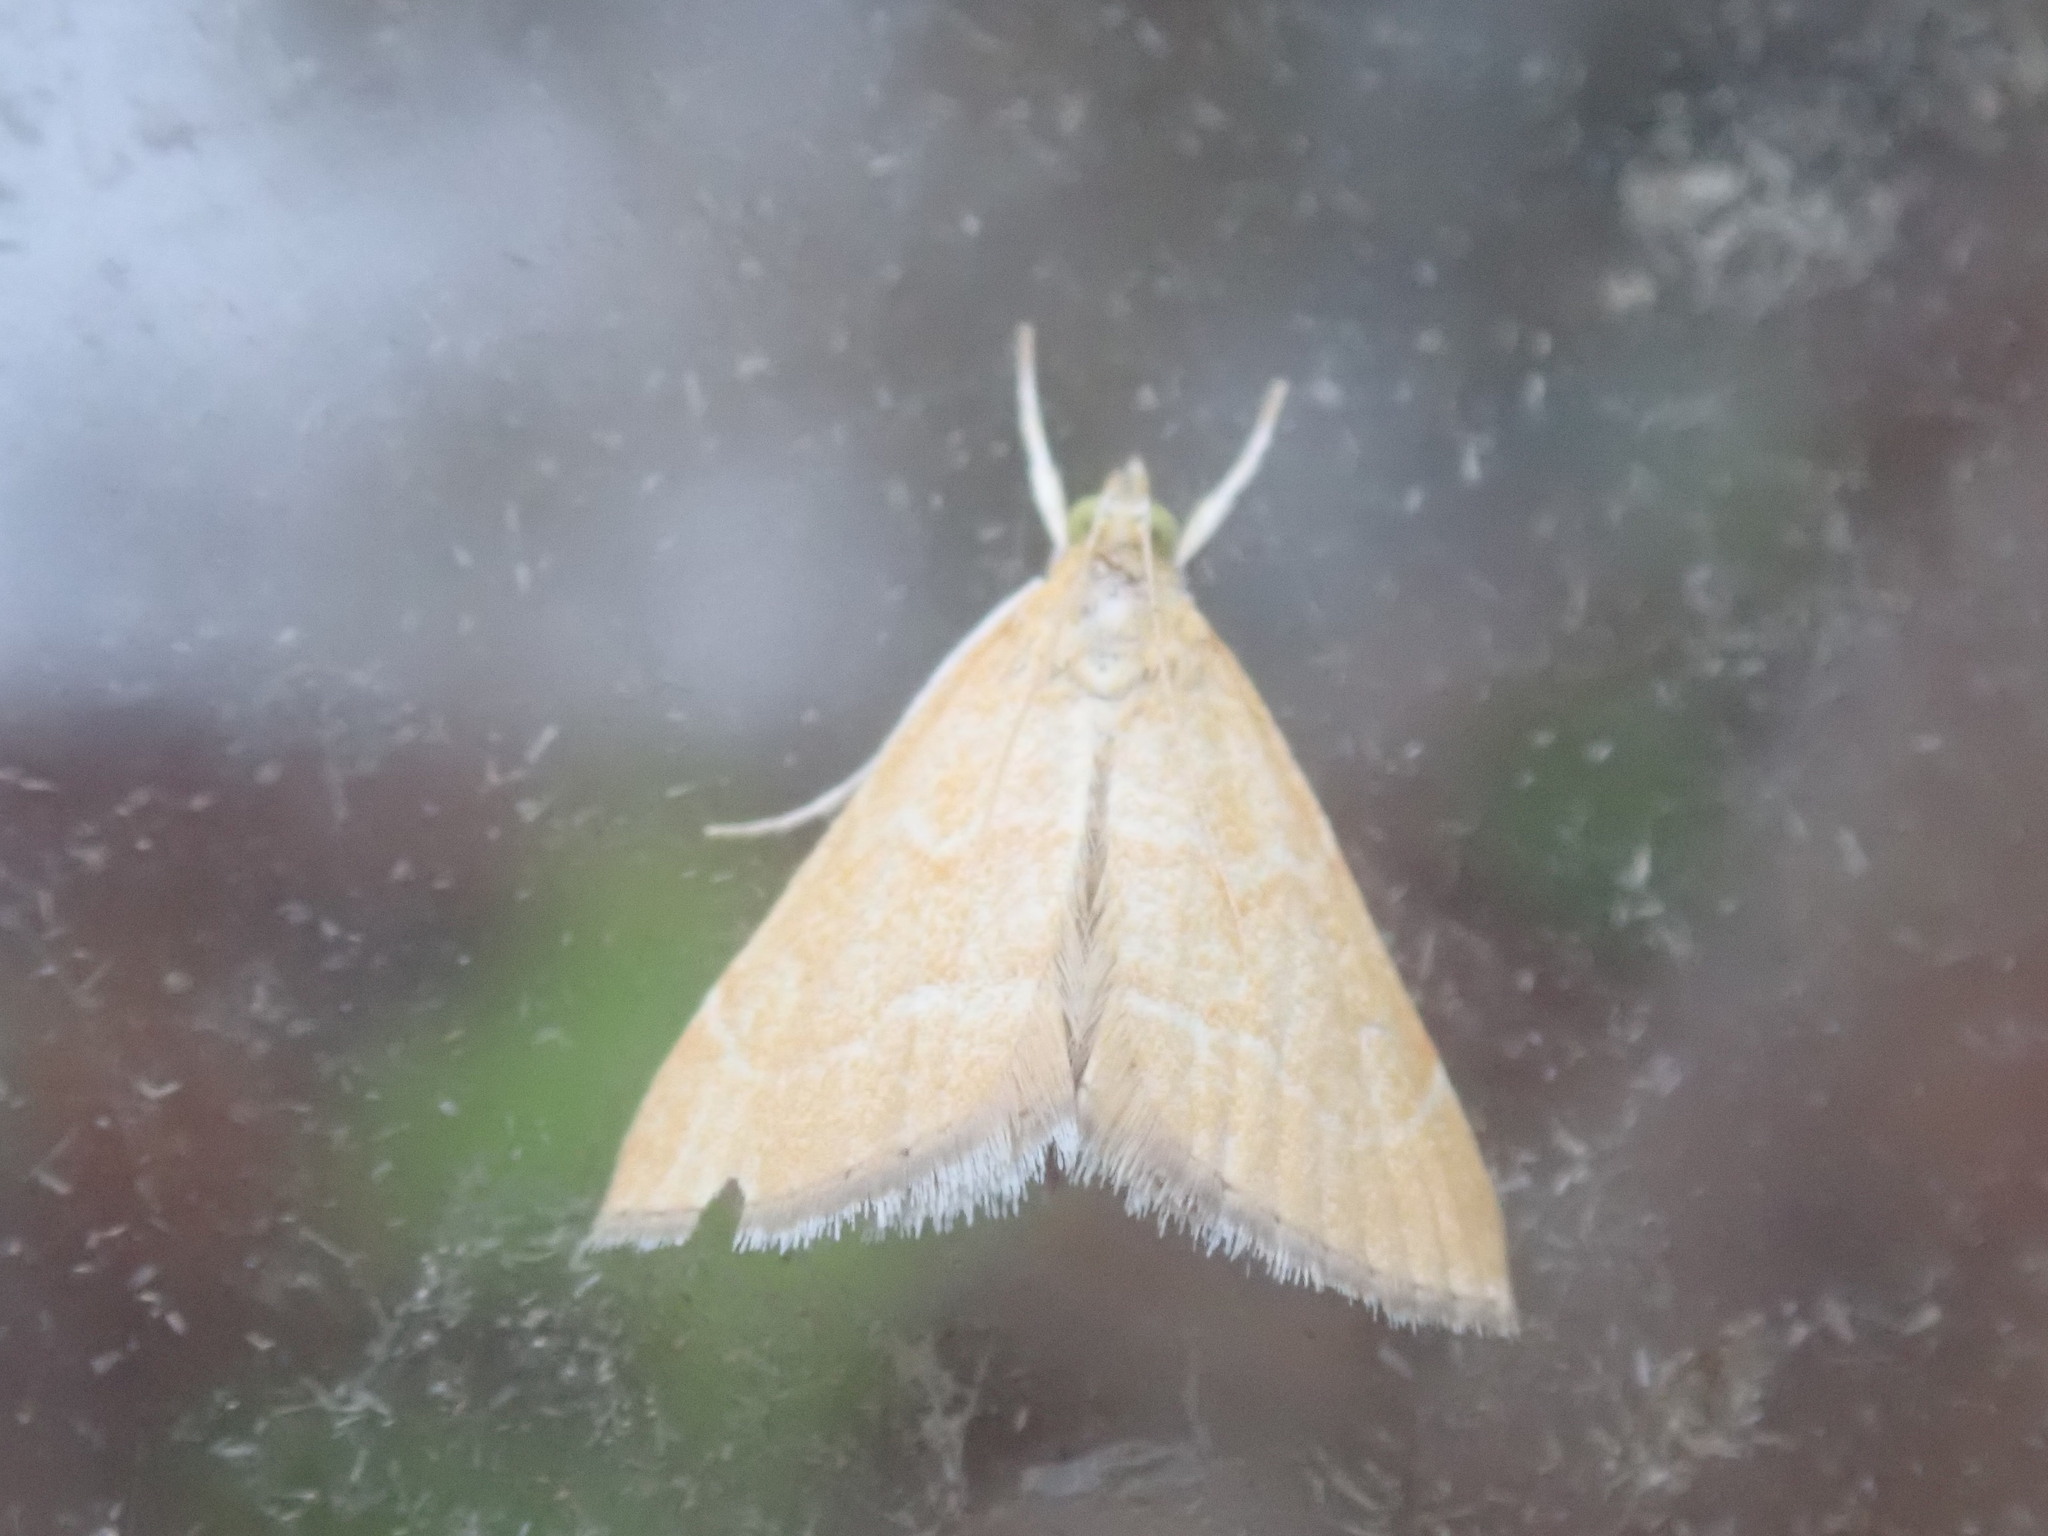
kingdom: Animalia
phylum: Arthropoda
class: Insecta
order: Lepidoptera
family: Crambidae
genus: Glaphyria
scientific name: Glaphyria invisalis
